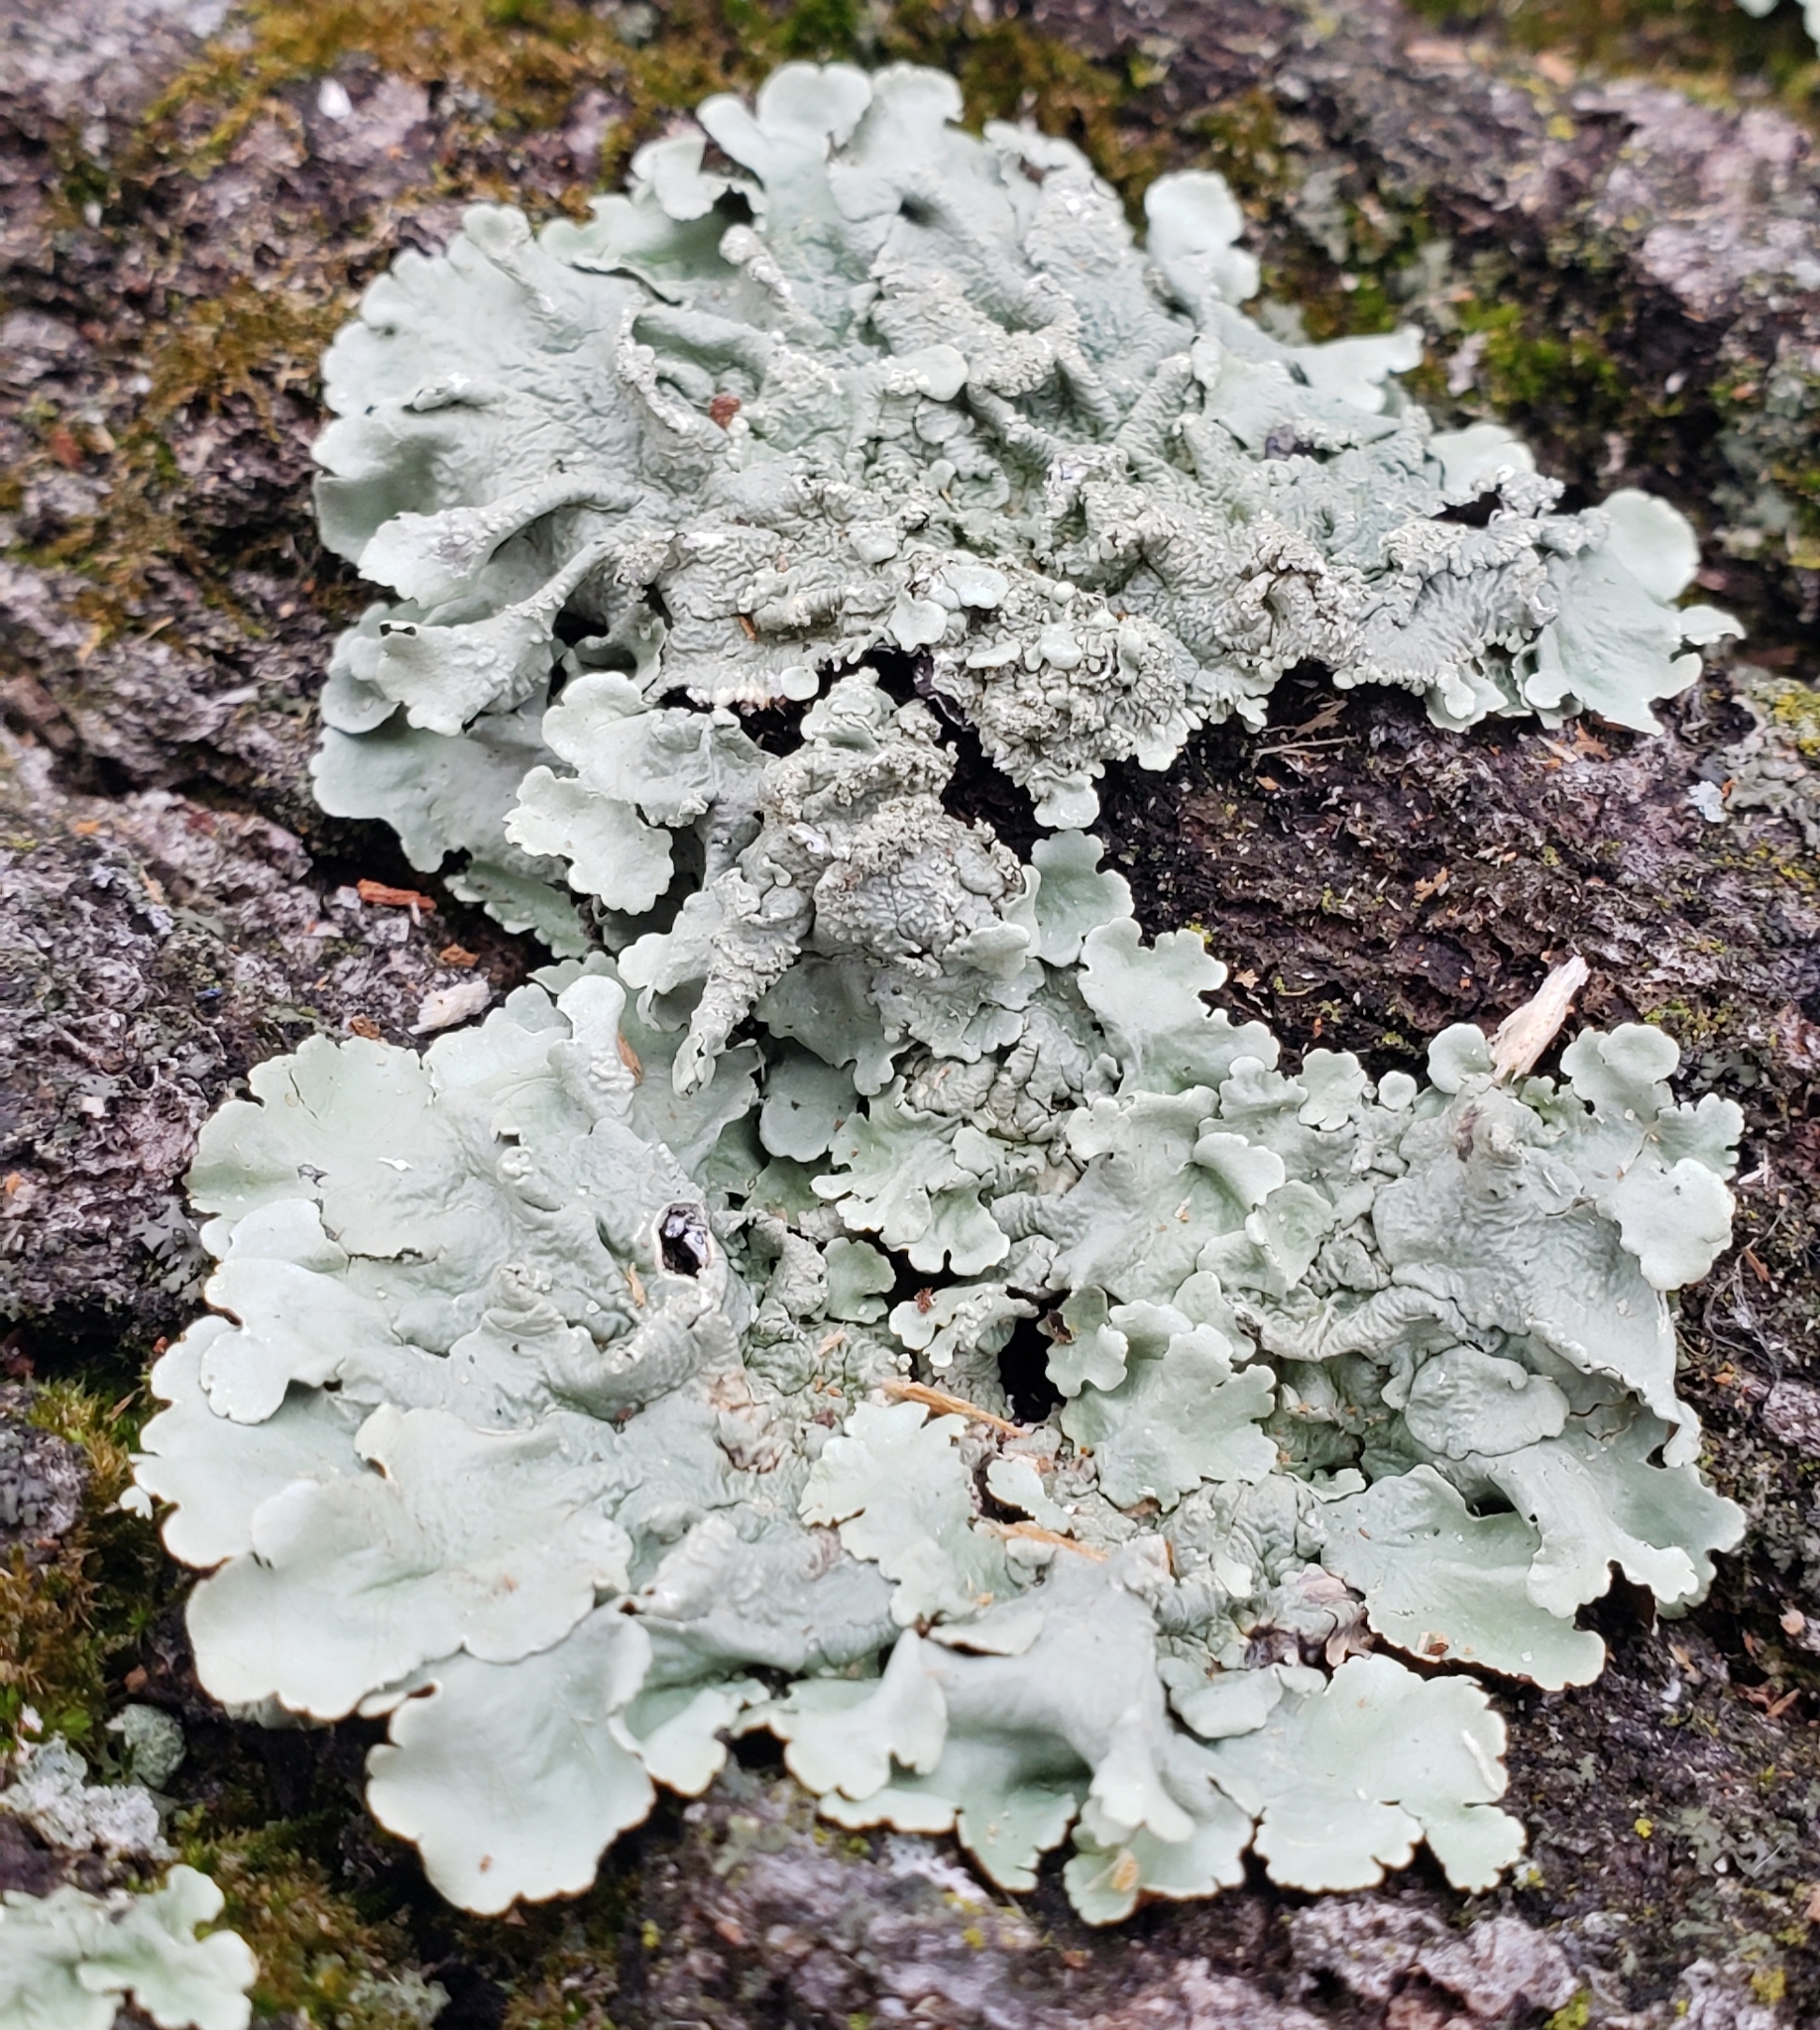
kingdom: Fungi
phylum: Ascomycota
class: Lecanoromycetes
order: Lecanorales
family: Parmeliaceae
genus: Flavoparmelia
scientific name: Flavoparmelia caperata
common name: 40-mile per hour lichen
